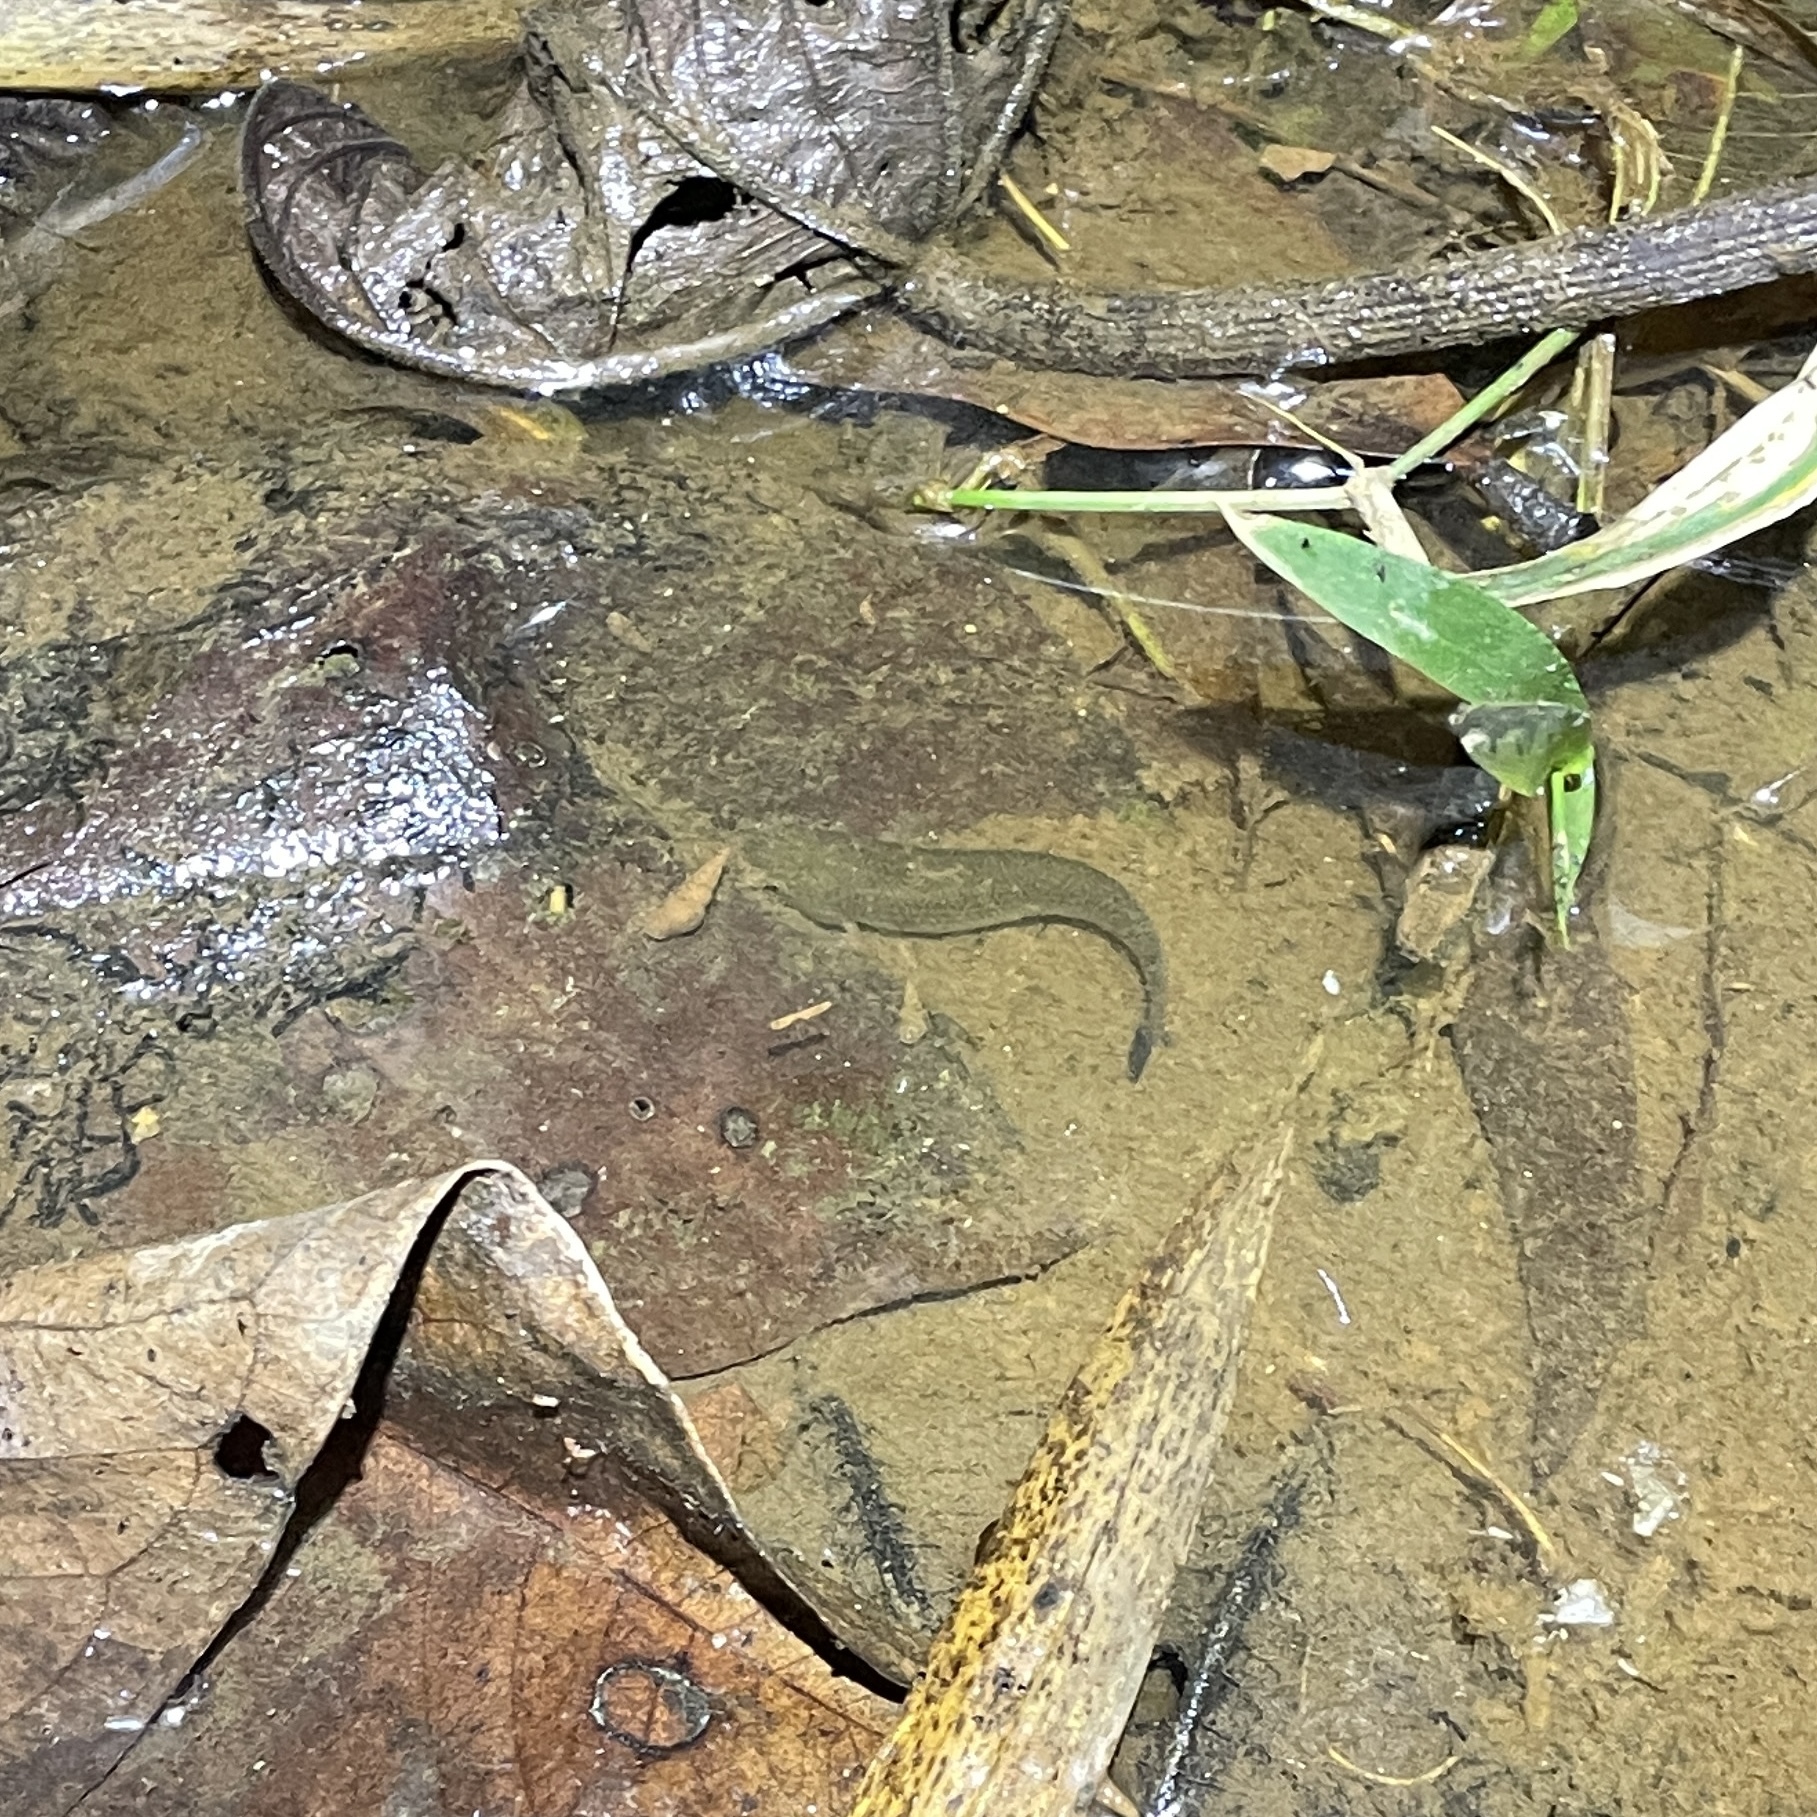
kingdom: Animalia
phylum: Chordata
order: Cyprinodontiformes
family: Rivulidae
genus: Anablepsoides
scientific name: Anablepsoides hartii
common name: Giant rivulus
